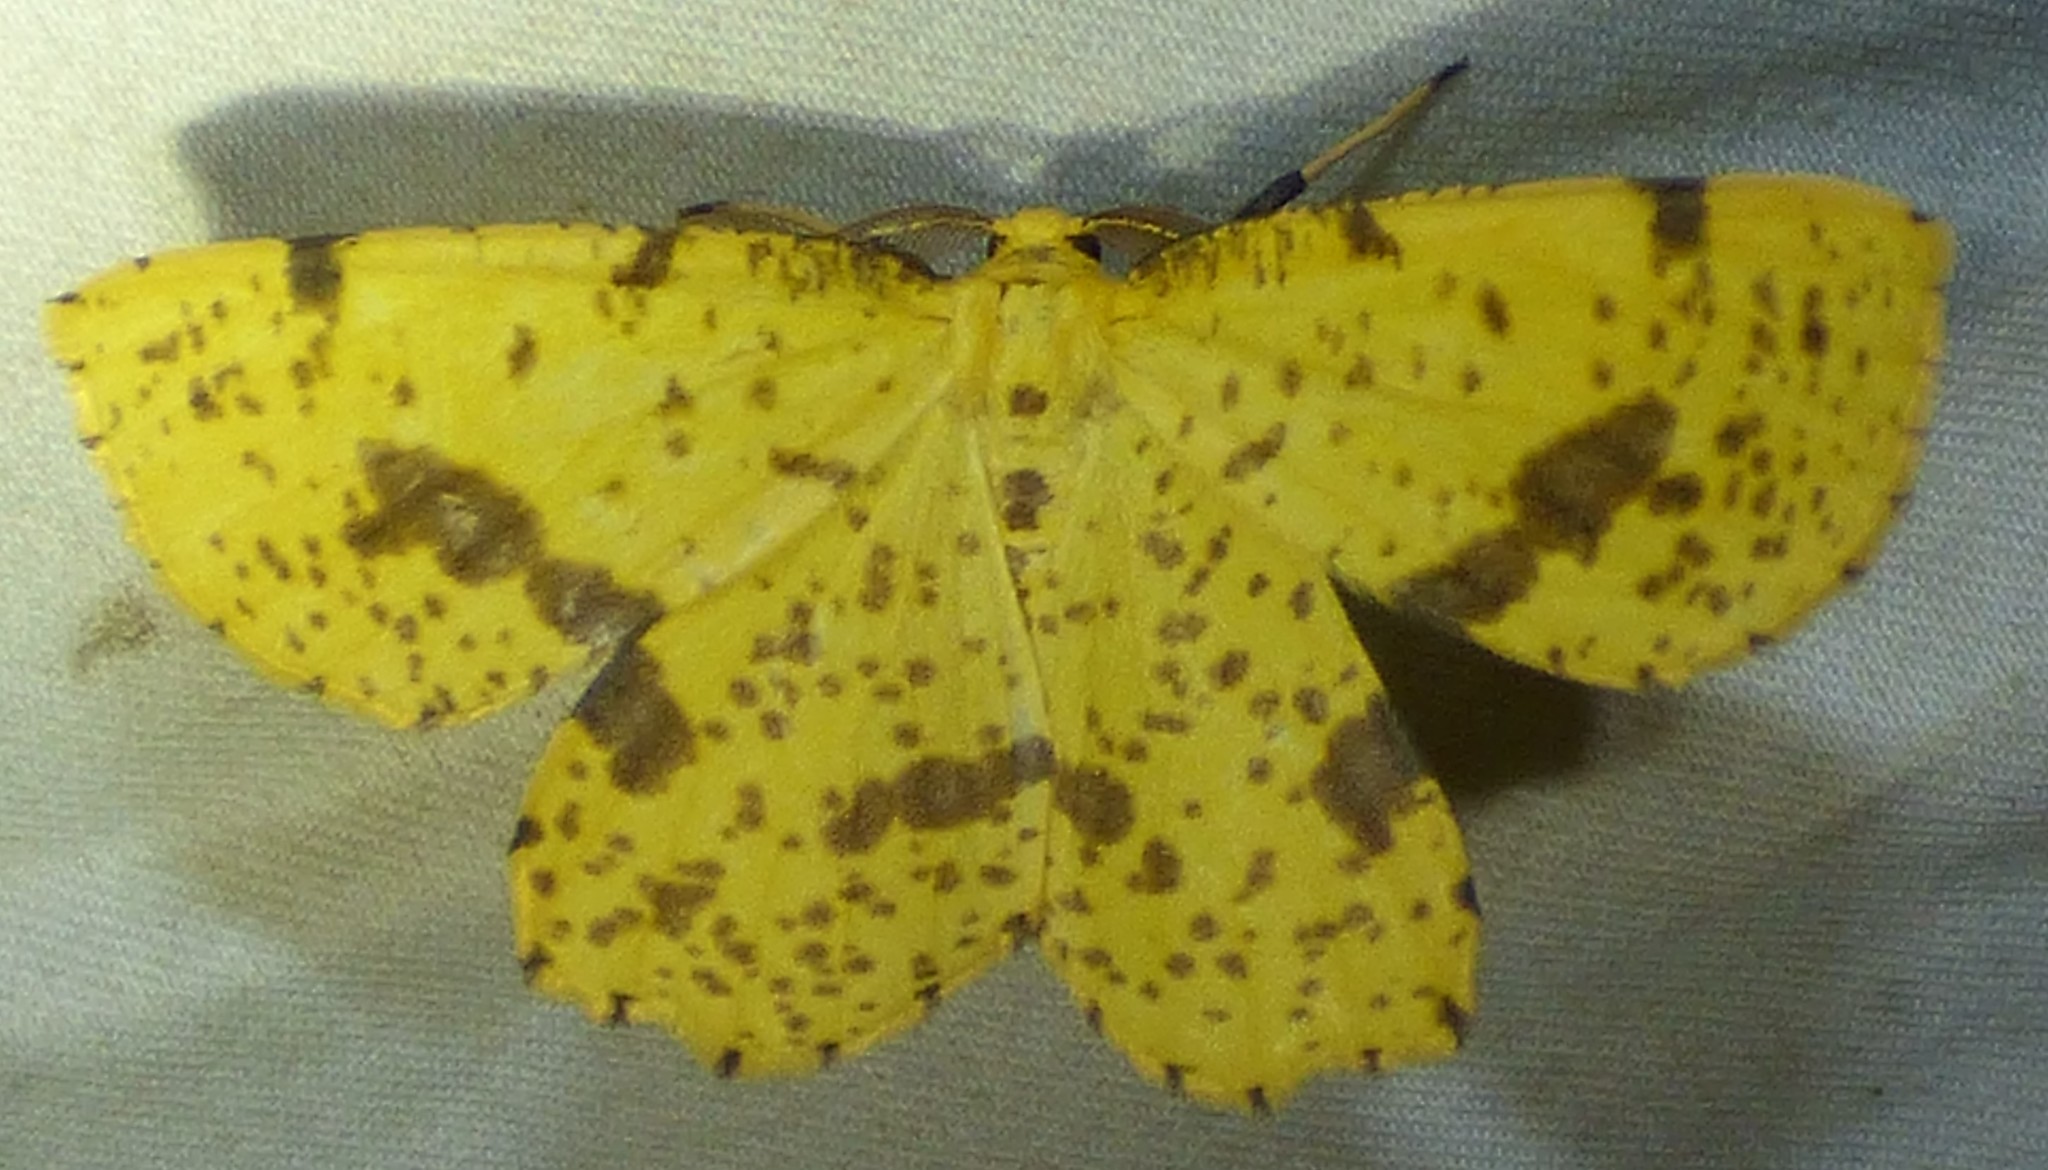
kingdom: Animalia
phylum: Arthropoda
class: Insecta
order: Lepidoptera
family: Geometridae
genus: Xanthotype
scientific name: Xanthotype
